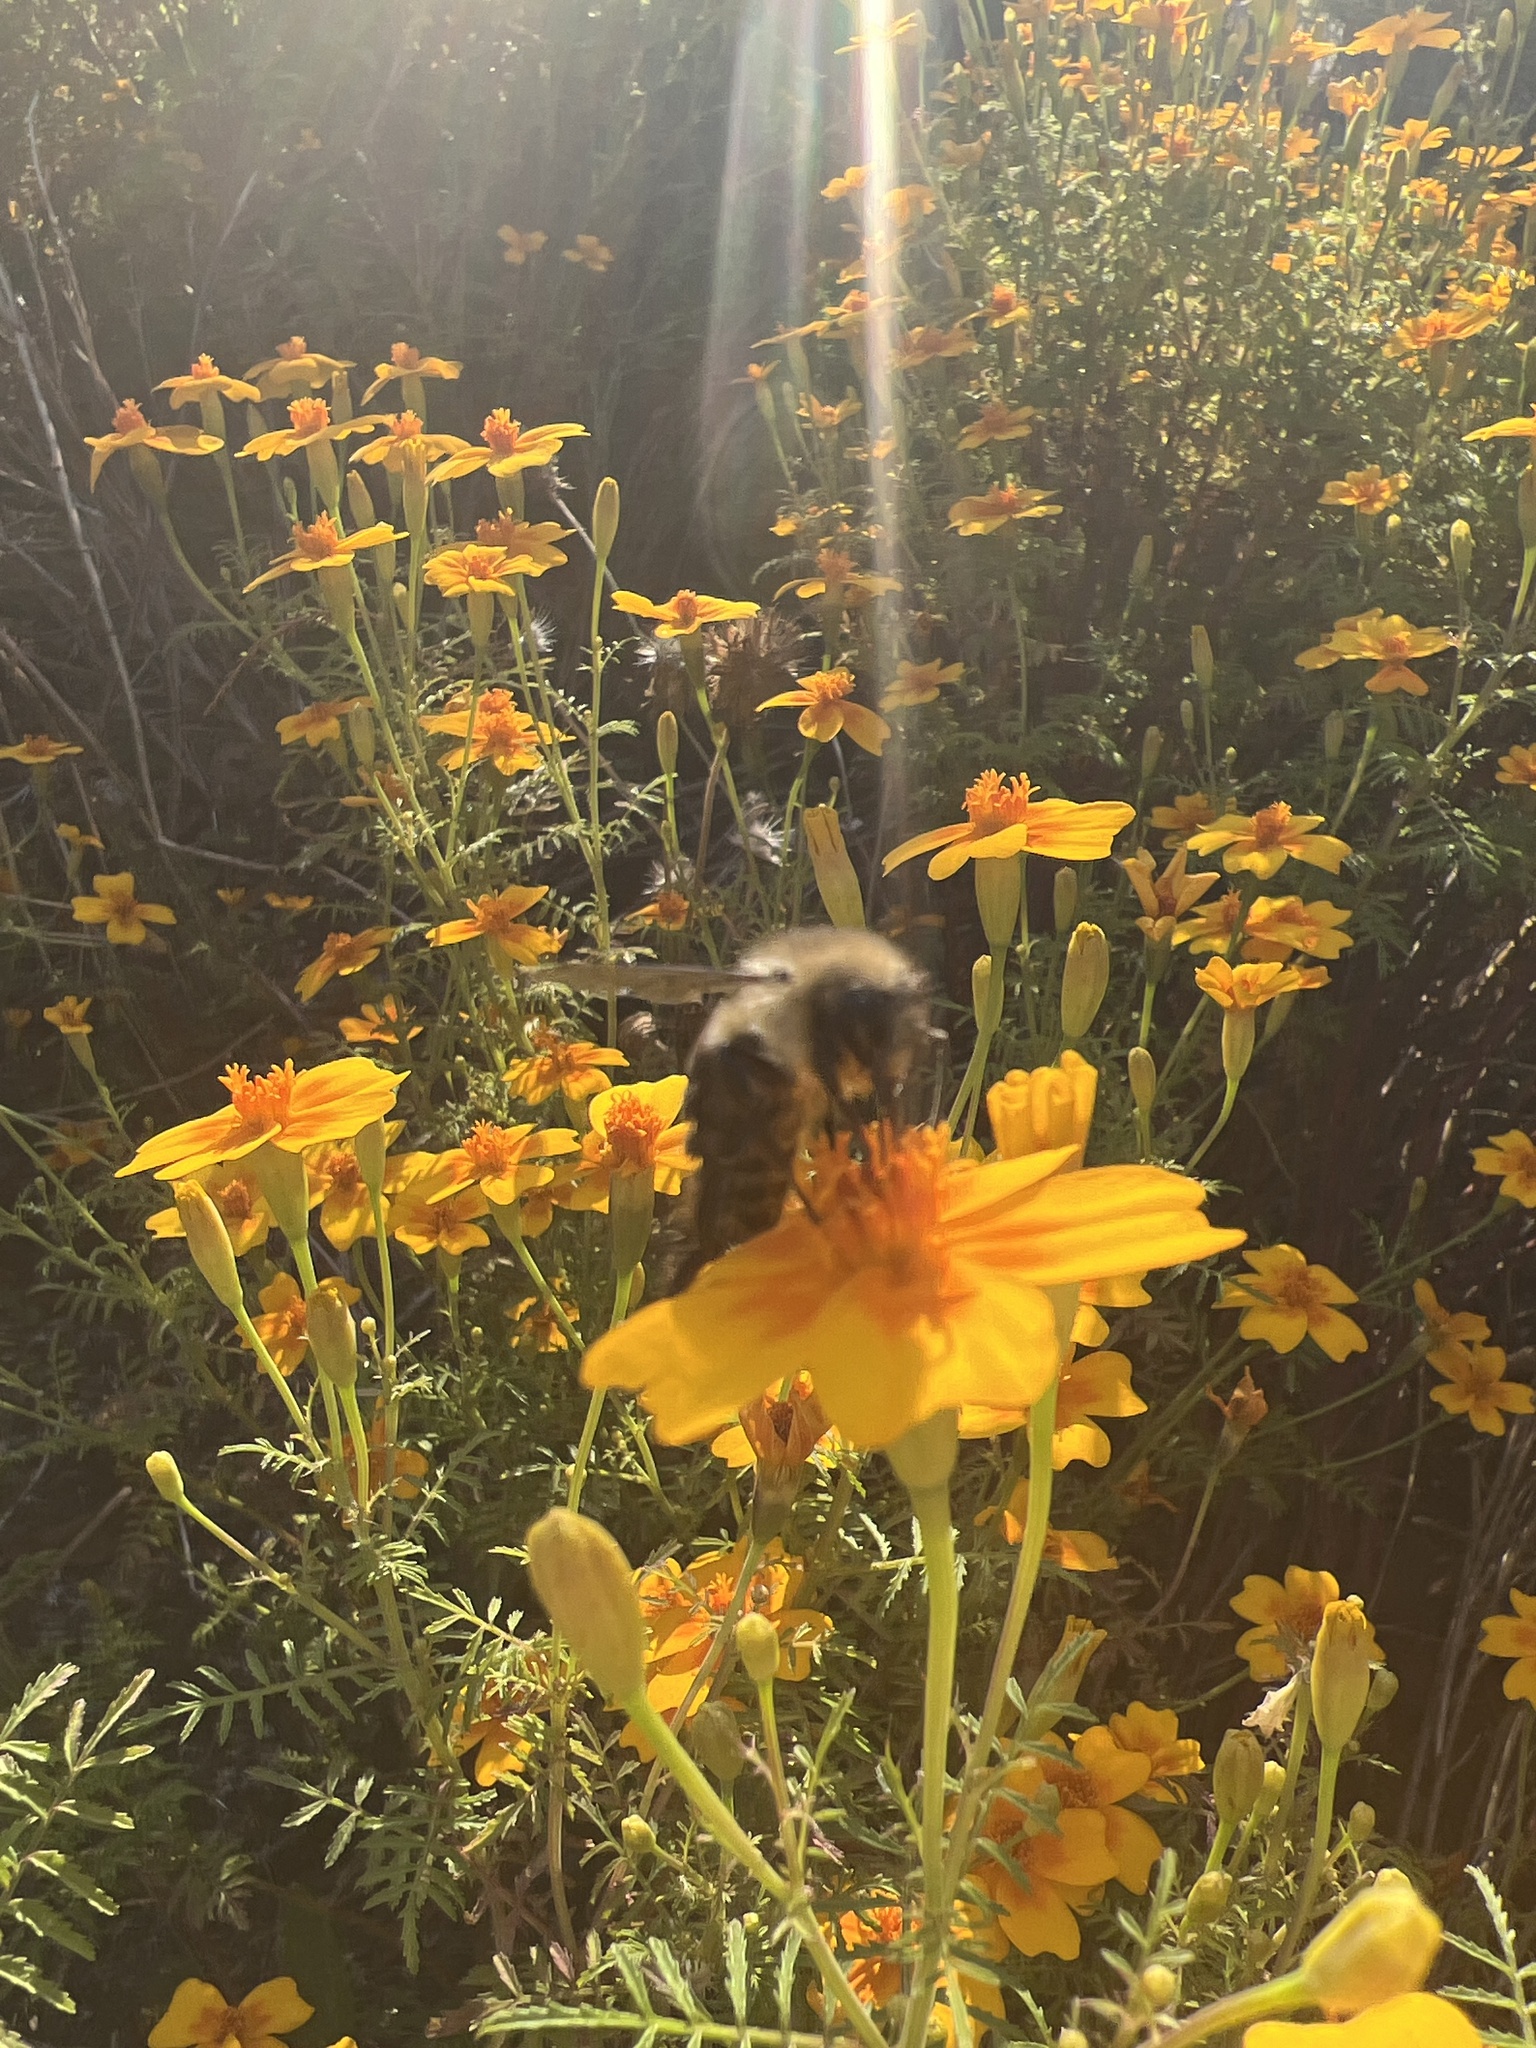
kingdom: Animalia
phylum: Arthropoda
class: Insecta
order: Hymenoptera
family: Apidae
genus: Bombus
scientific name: Bombus impatiens
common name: Common eastern bumble bee
